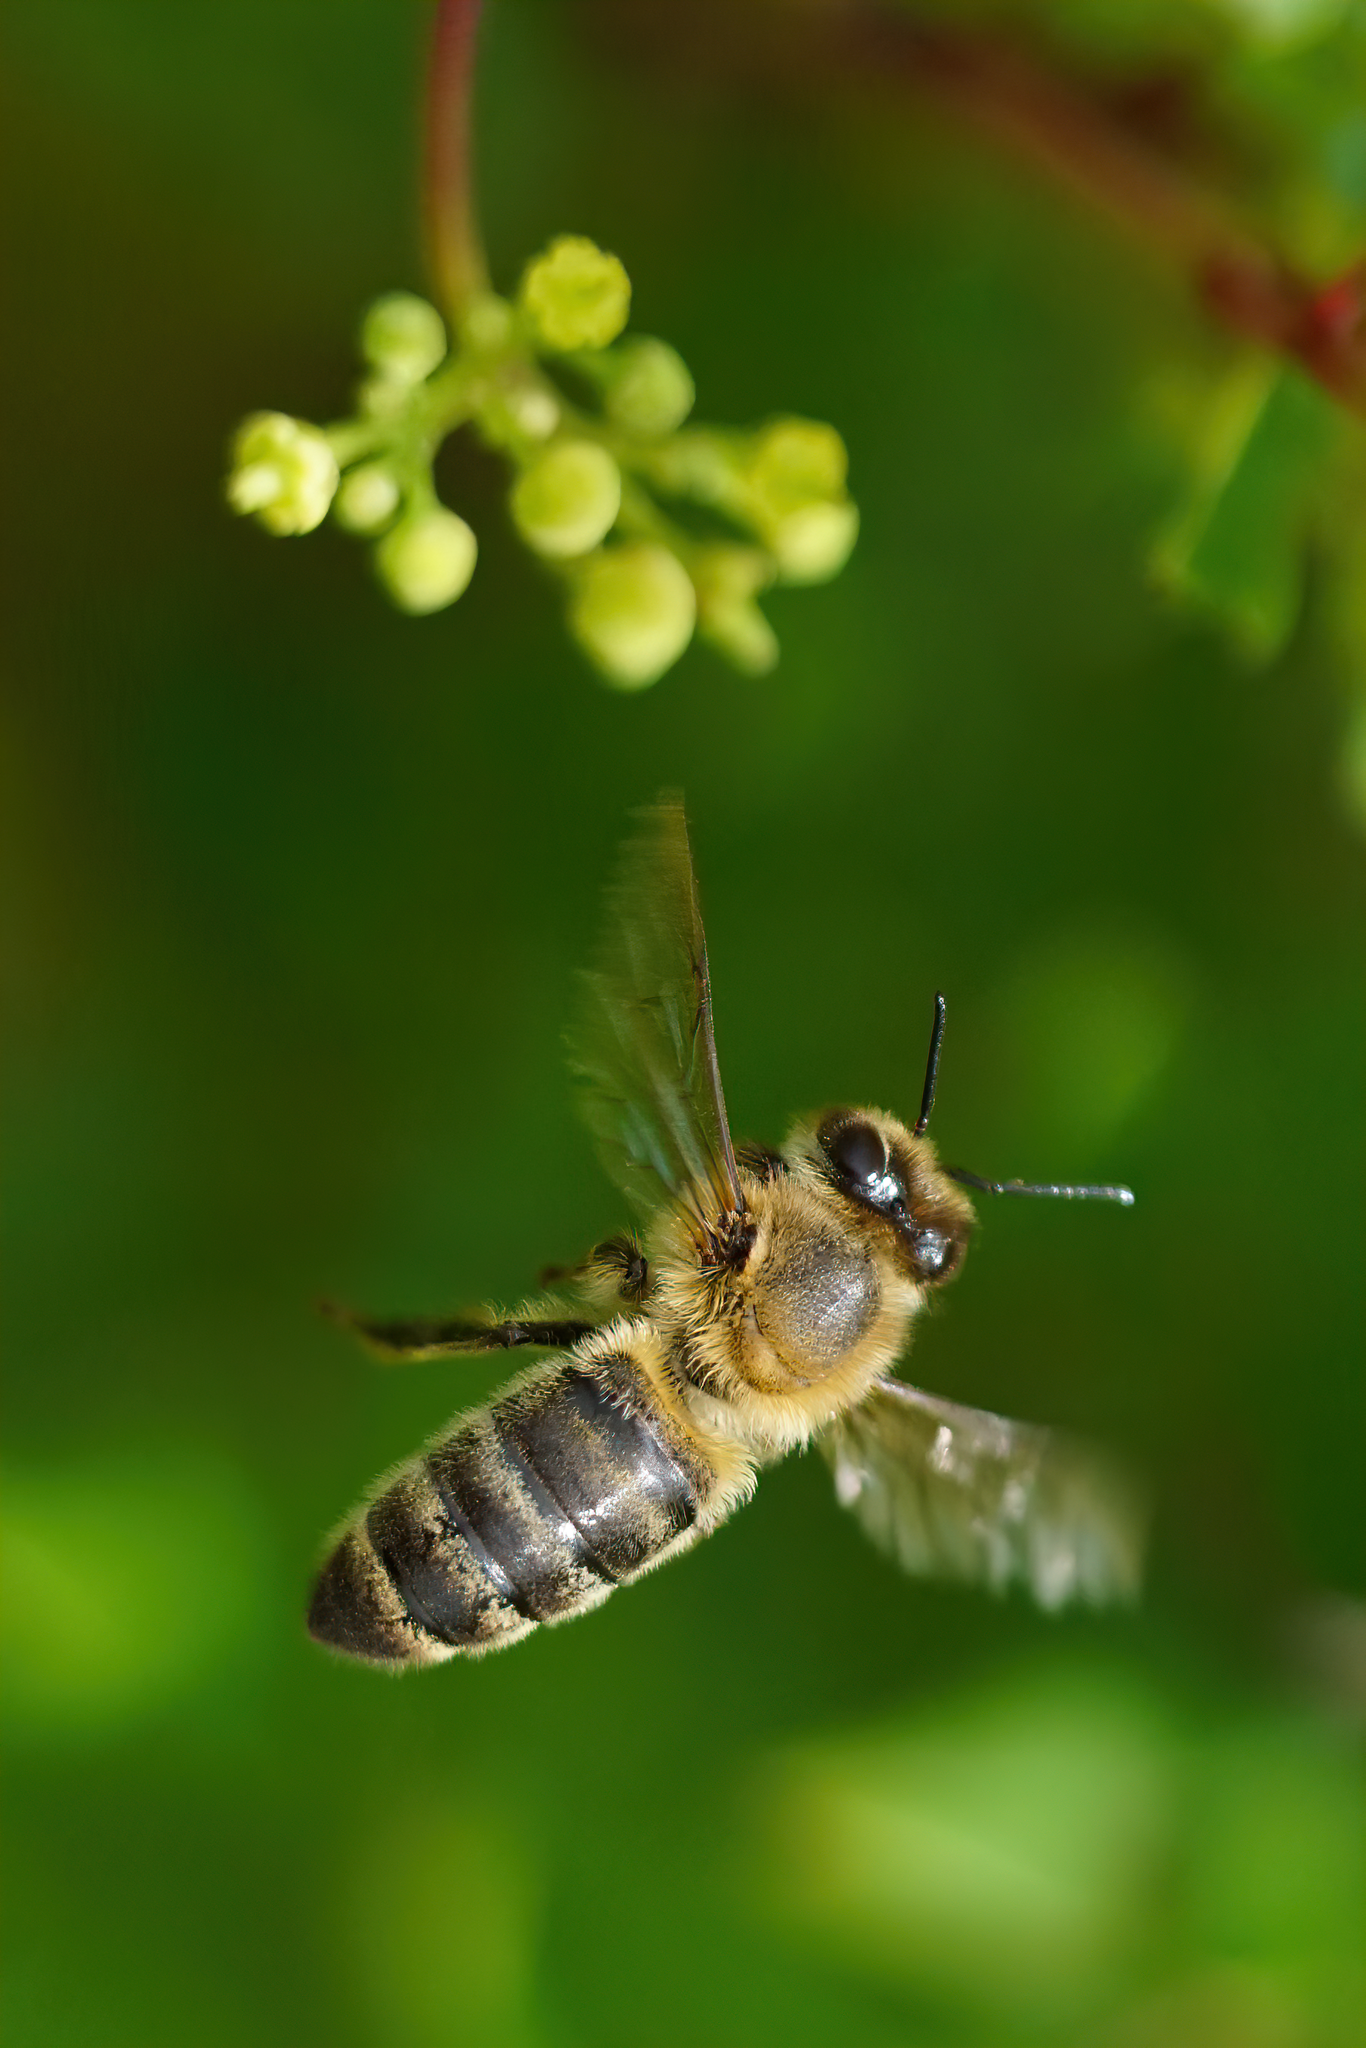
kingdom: Animalia
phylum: Arthropoda
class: Insecta
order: Hymenoptera
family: Apidae
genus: Apis
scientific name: Apis mellifera
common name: Honey bee
